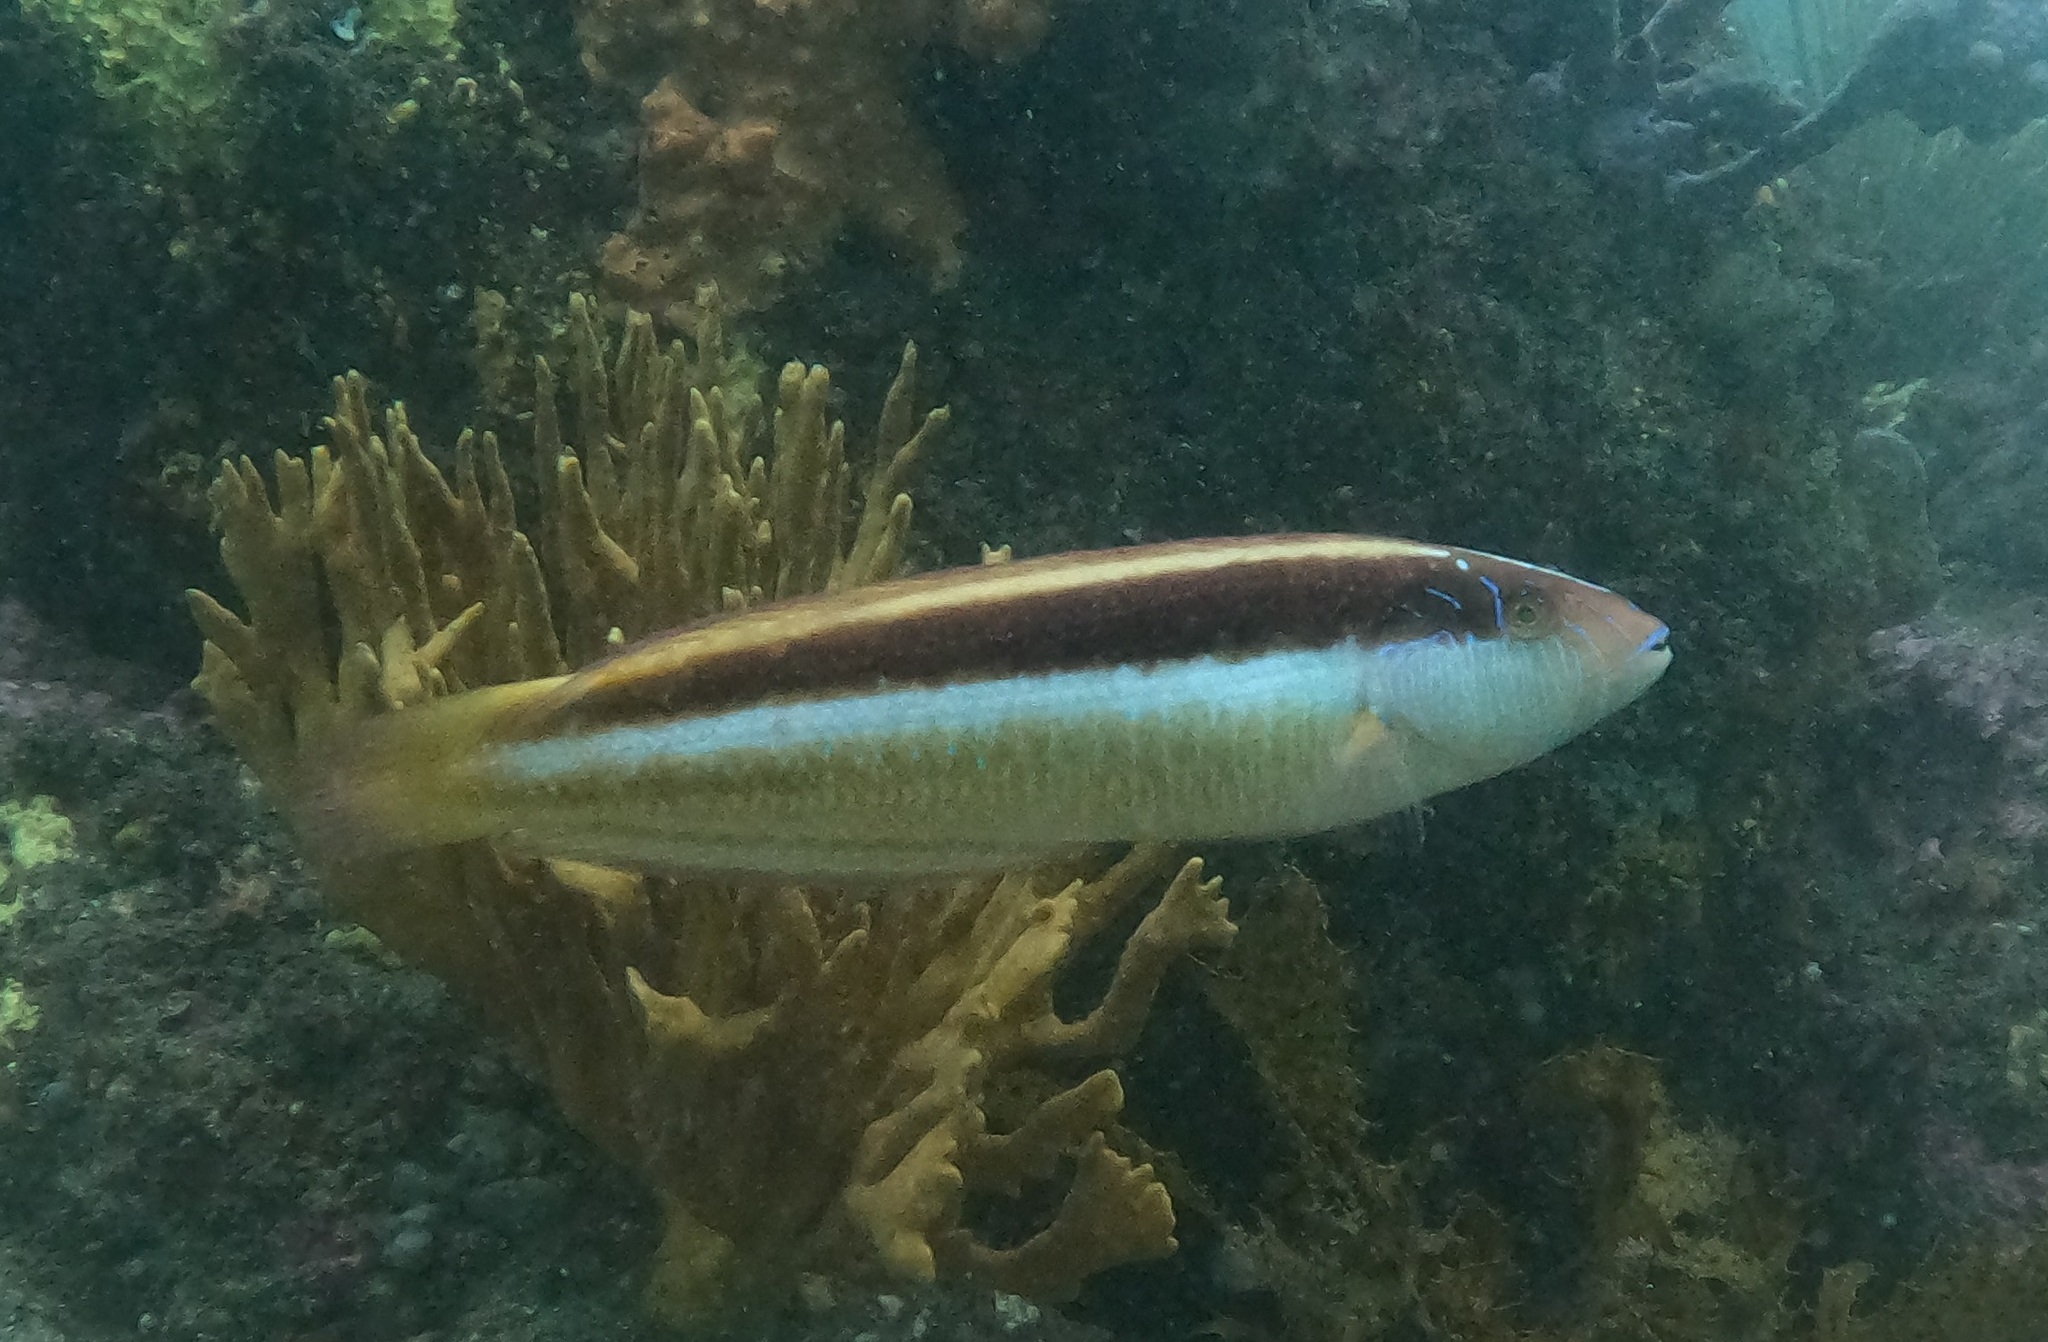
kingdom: Animalia
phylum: Chordata
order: Perciformes
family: Labridae
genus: Ophthalmolepis
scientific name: Ophthalmolepis lineolata
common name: Maori wrasse
